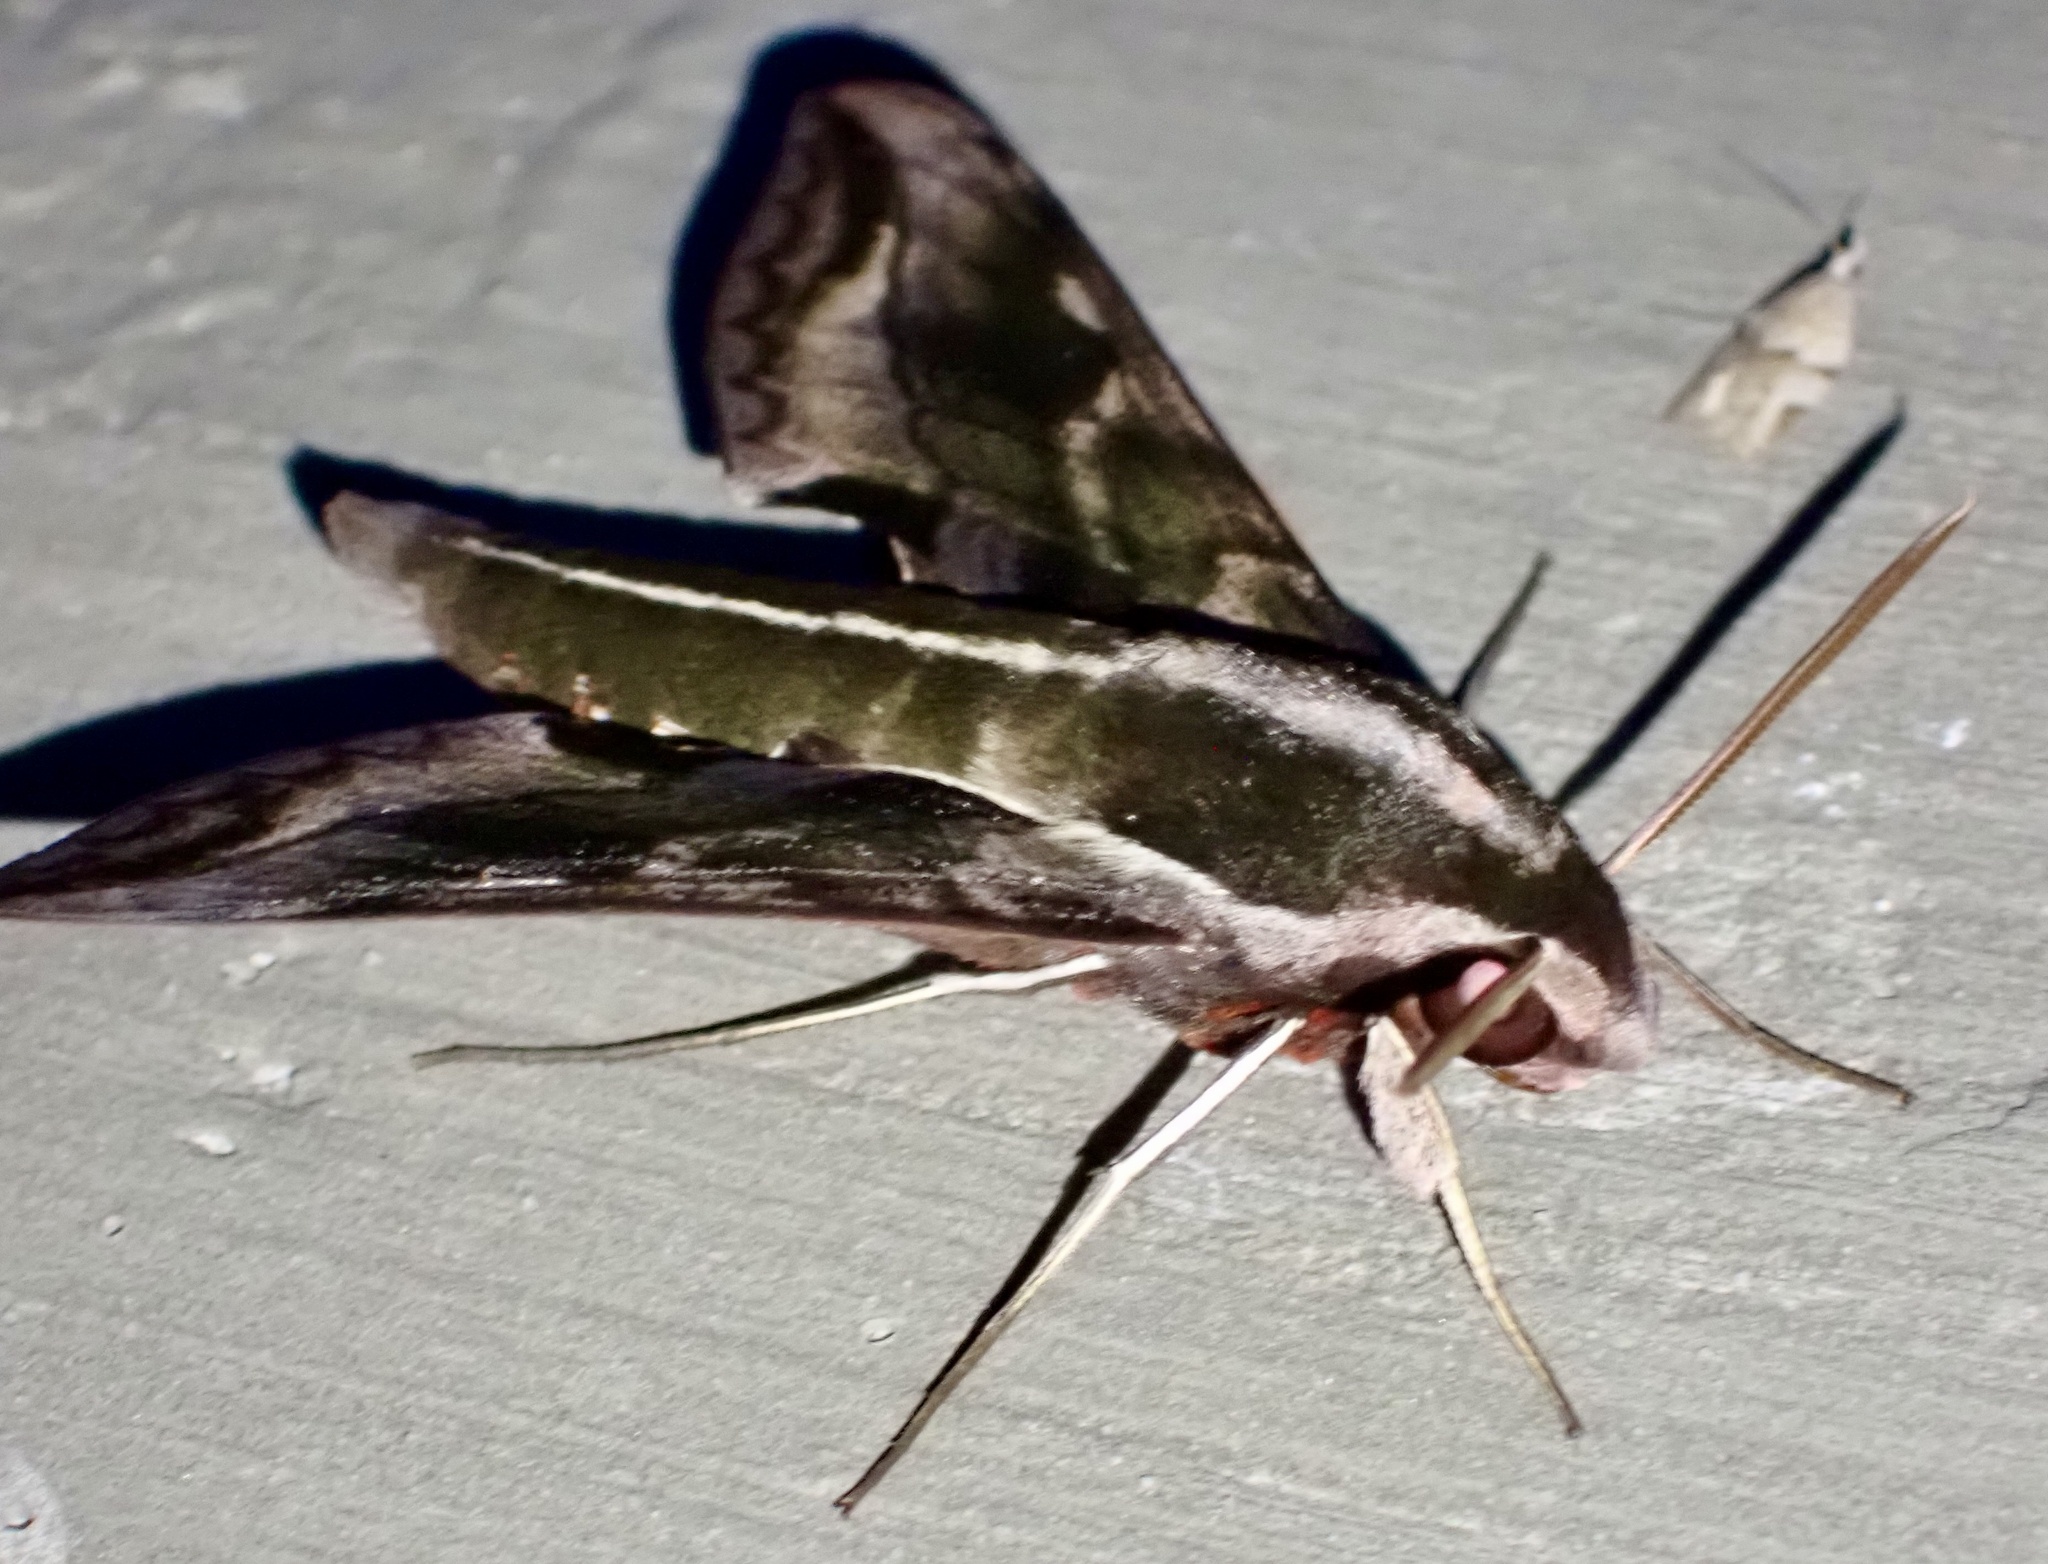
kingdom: Animalia
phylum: Arthropoda
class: Insecta
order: Lepidoptera
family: Sphingidae
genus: Hippotion
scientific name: Hippotion brunnea
